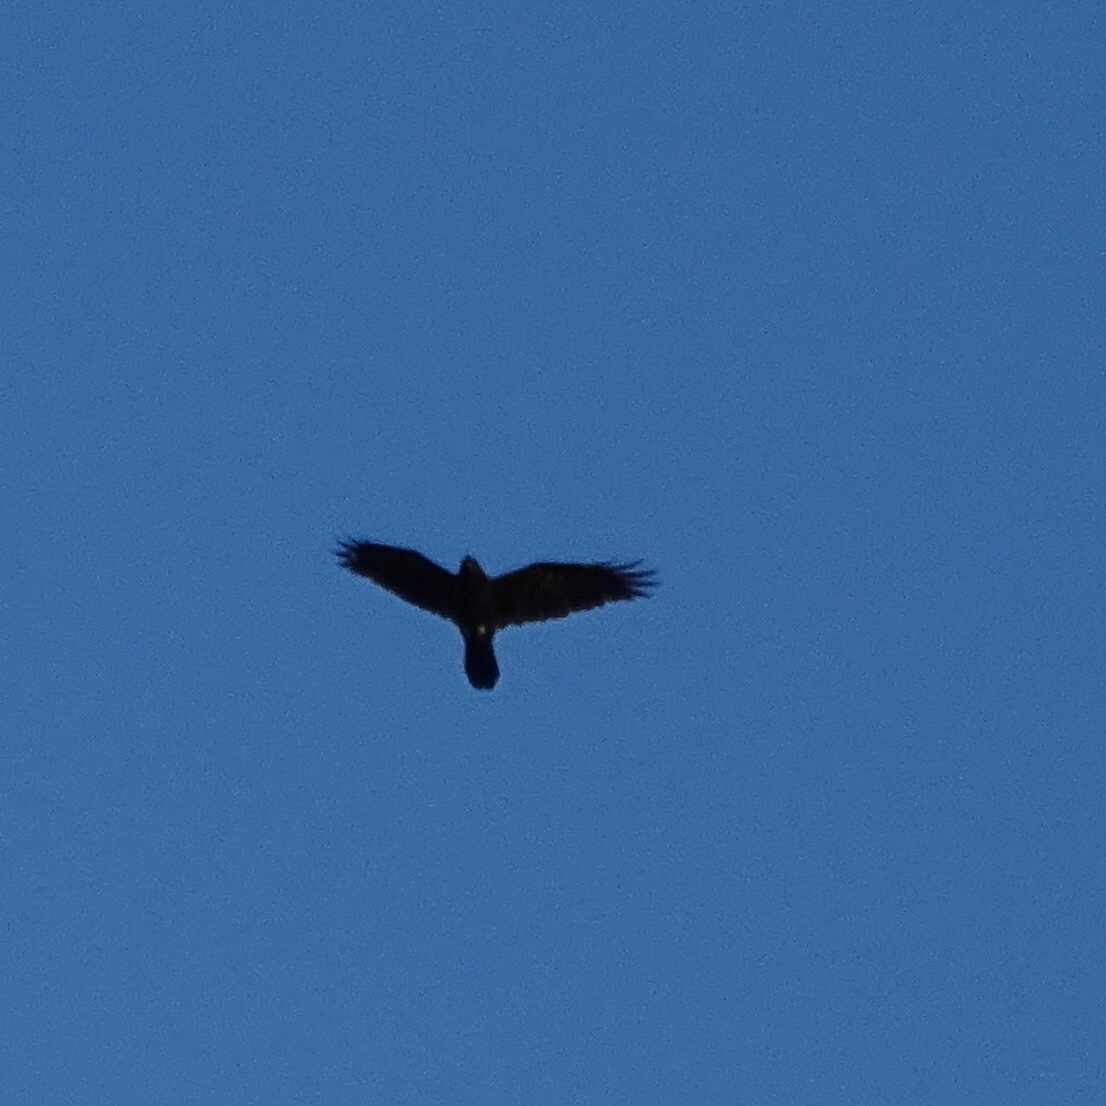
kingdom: Animalia
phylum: Chordata
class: Aves
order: Passeriformes
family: Corvidae
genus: Corvus
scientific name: Corvus corax
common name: Common raven
